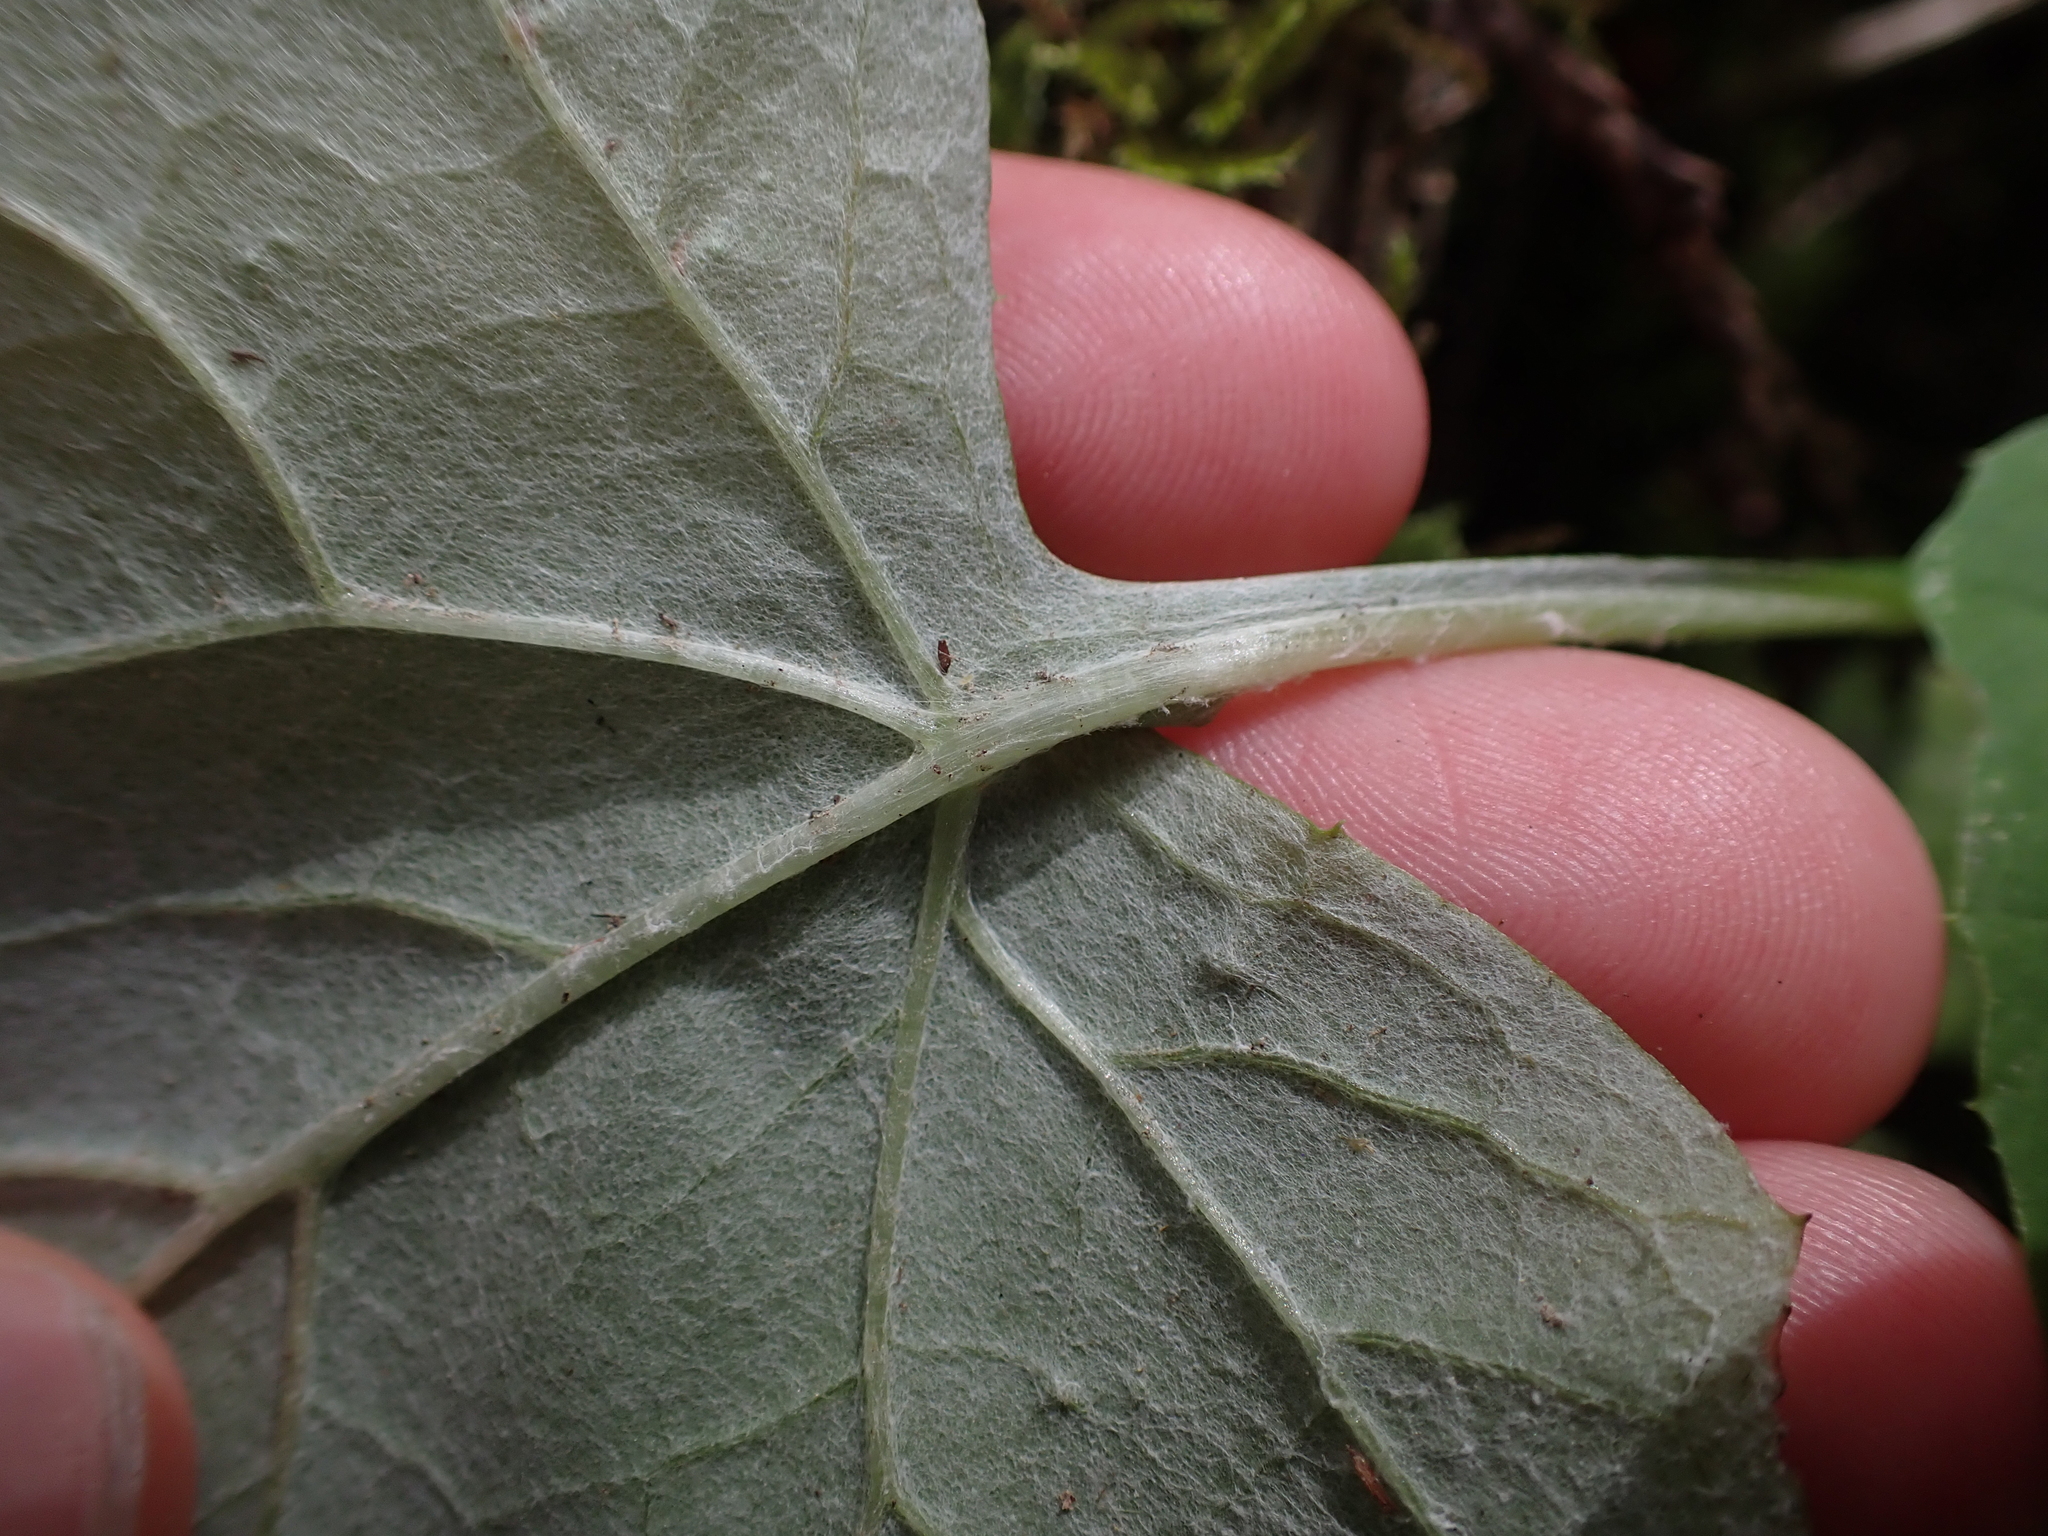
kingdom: Plantae
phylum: Tracheophyta
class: Magnoliopsida
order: Asterales
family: Asteraceae
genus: Adenocaulon
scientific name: Adenocaulon bicolor
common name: Trailplant
